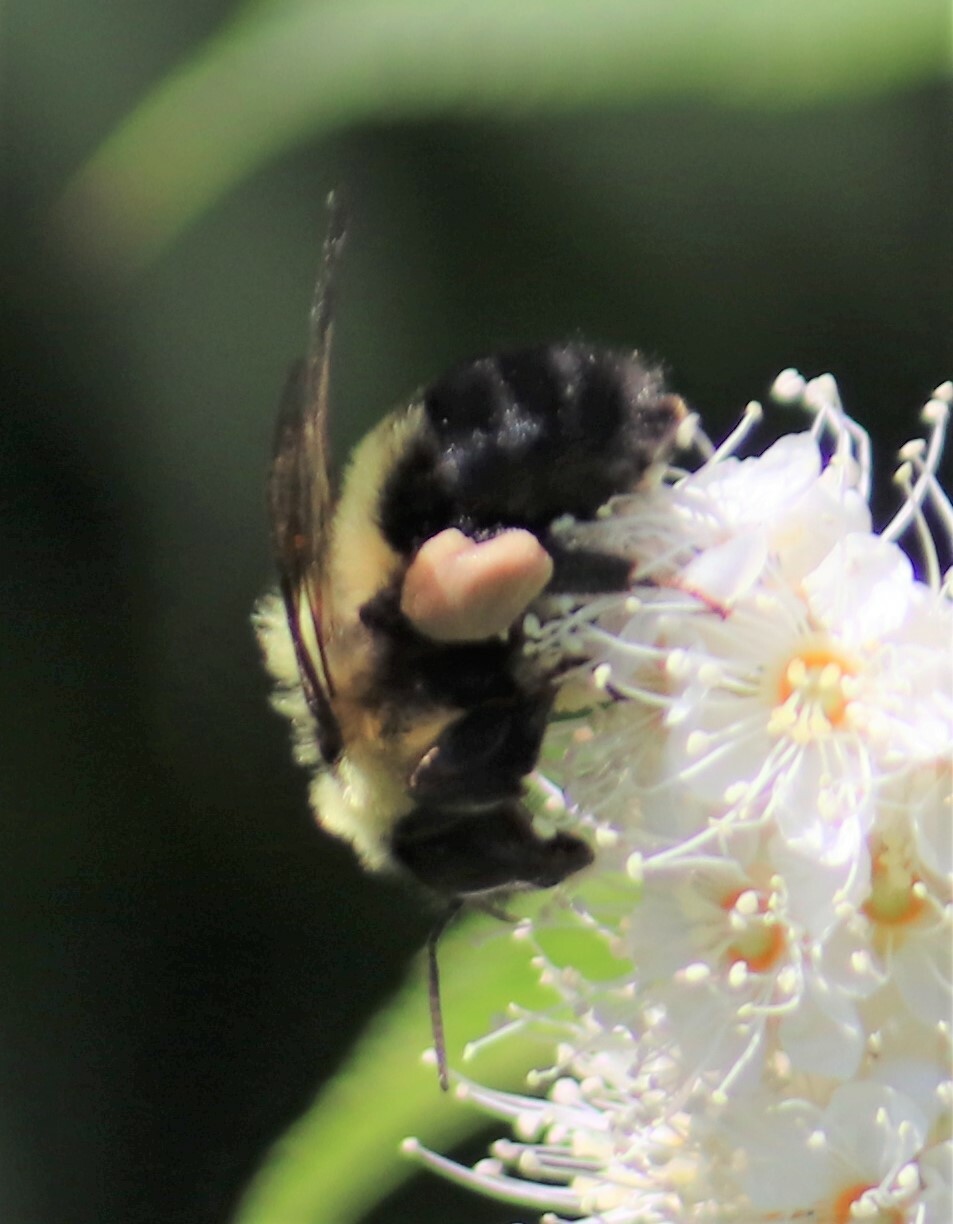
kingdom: Animalia
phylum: Arthropoda
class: Insecta
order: Hymenoptera
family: Apidae
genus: Bombus
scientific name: Bombus bimaculatus
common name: Two-spotted bumble bee
